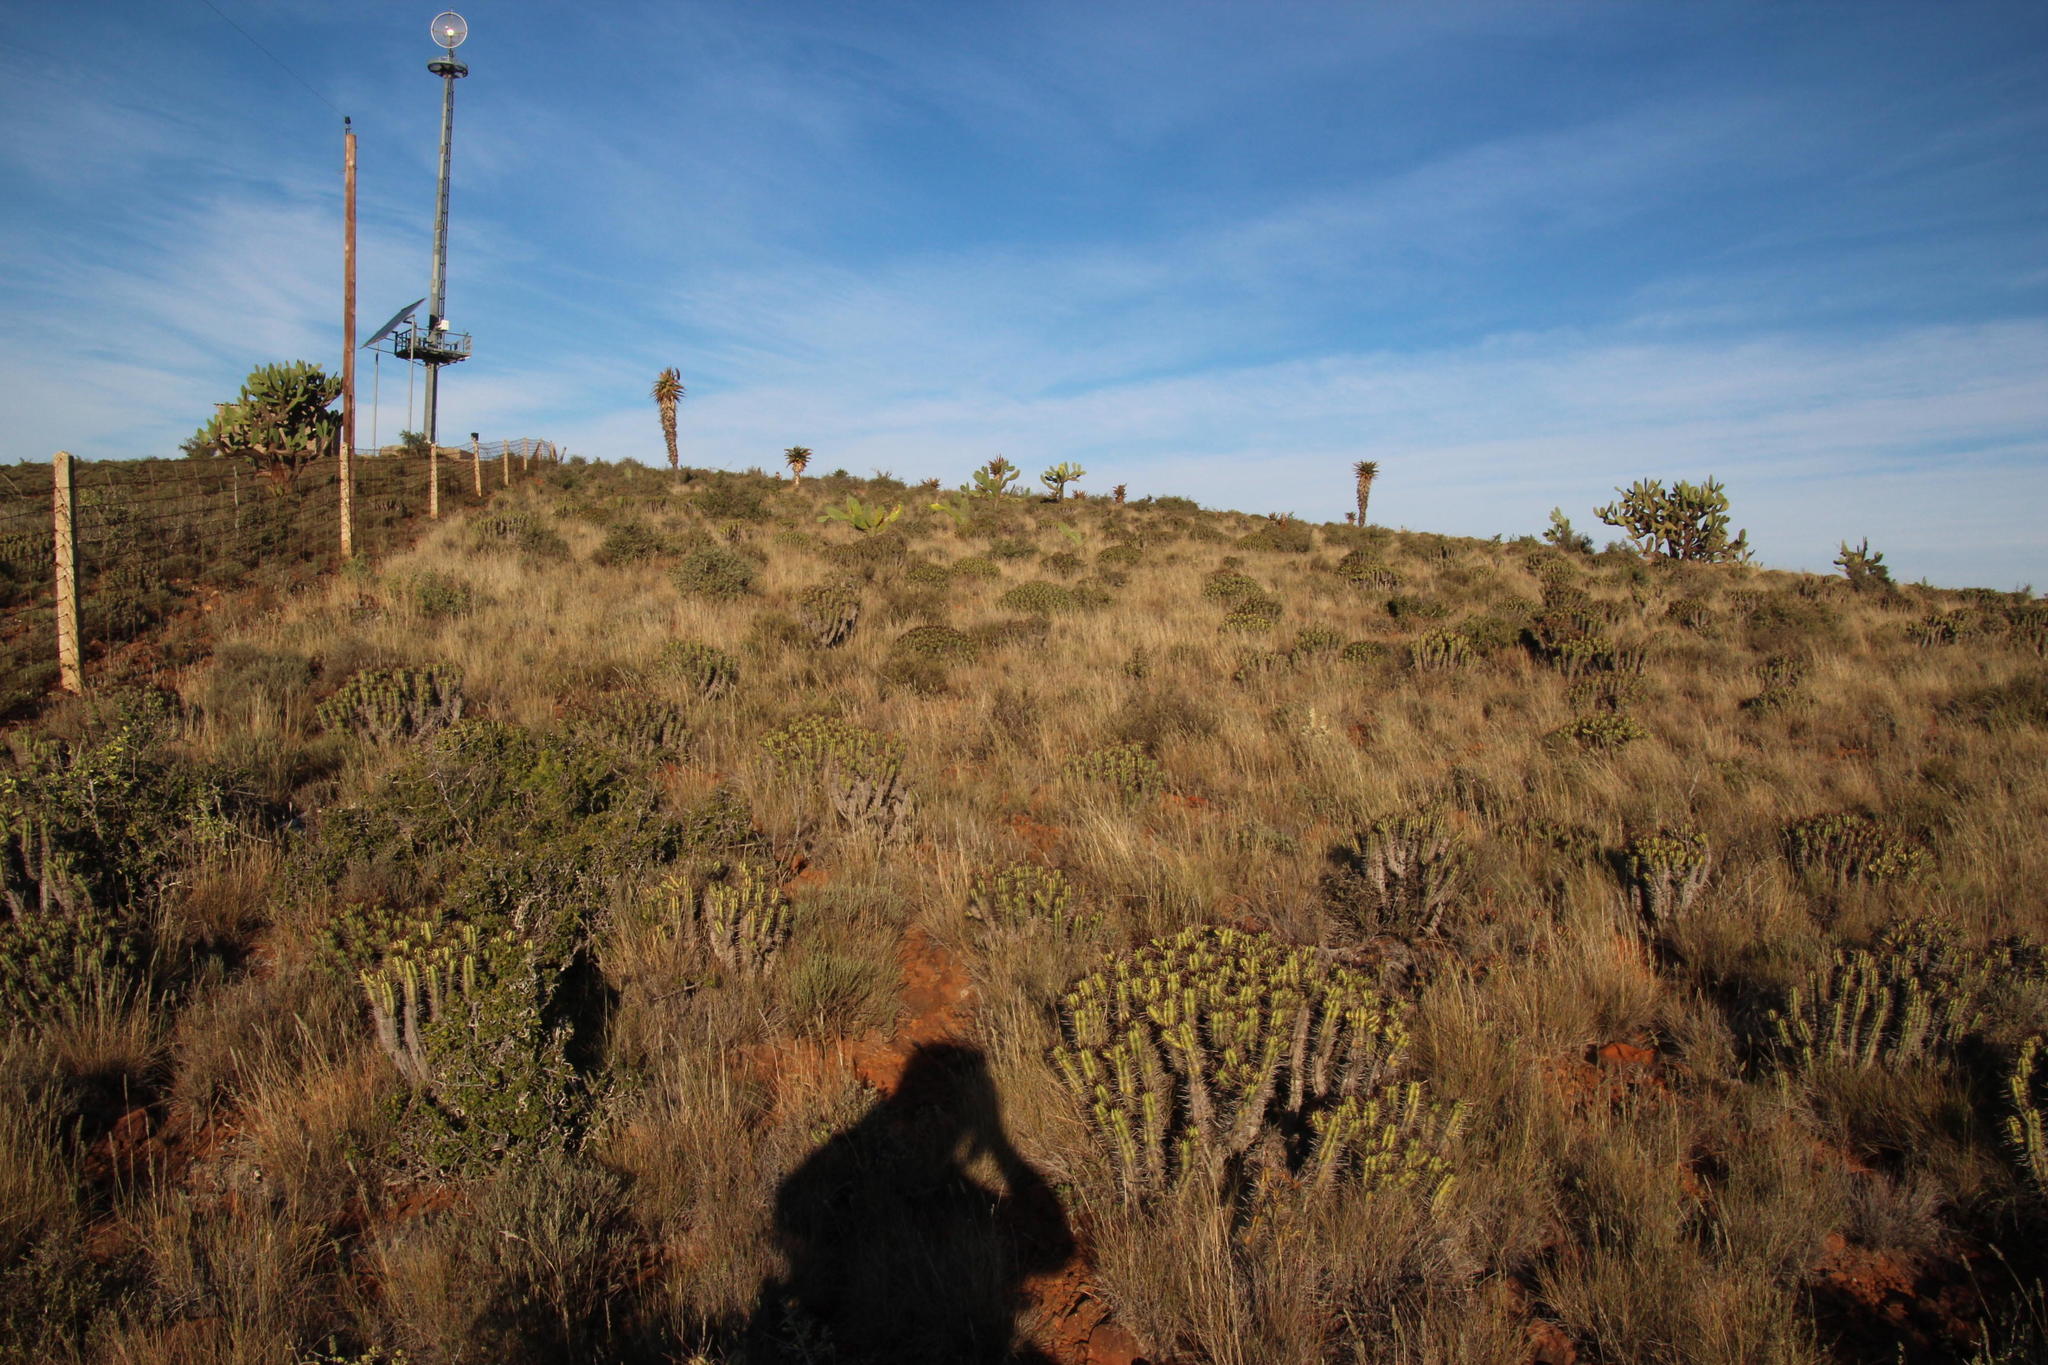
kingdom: Plantae
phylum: Tracheophyta
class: Liliopsida
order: Asparagales
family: Asphodelaceae
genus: Aloe
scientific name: Aloe ferox
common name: Bitter aloe
